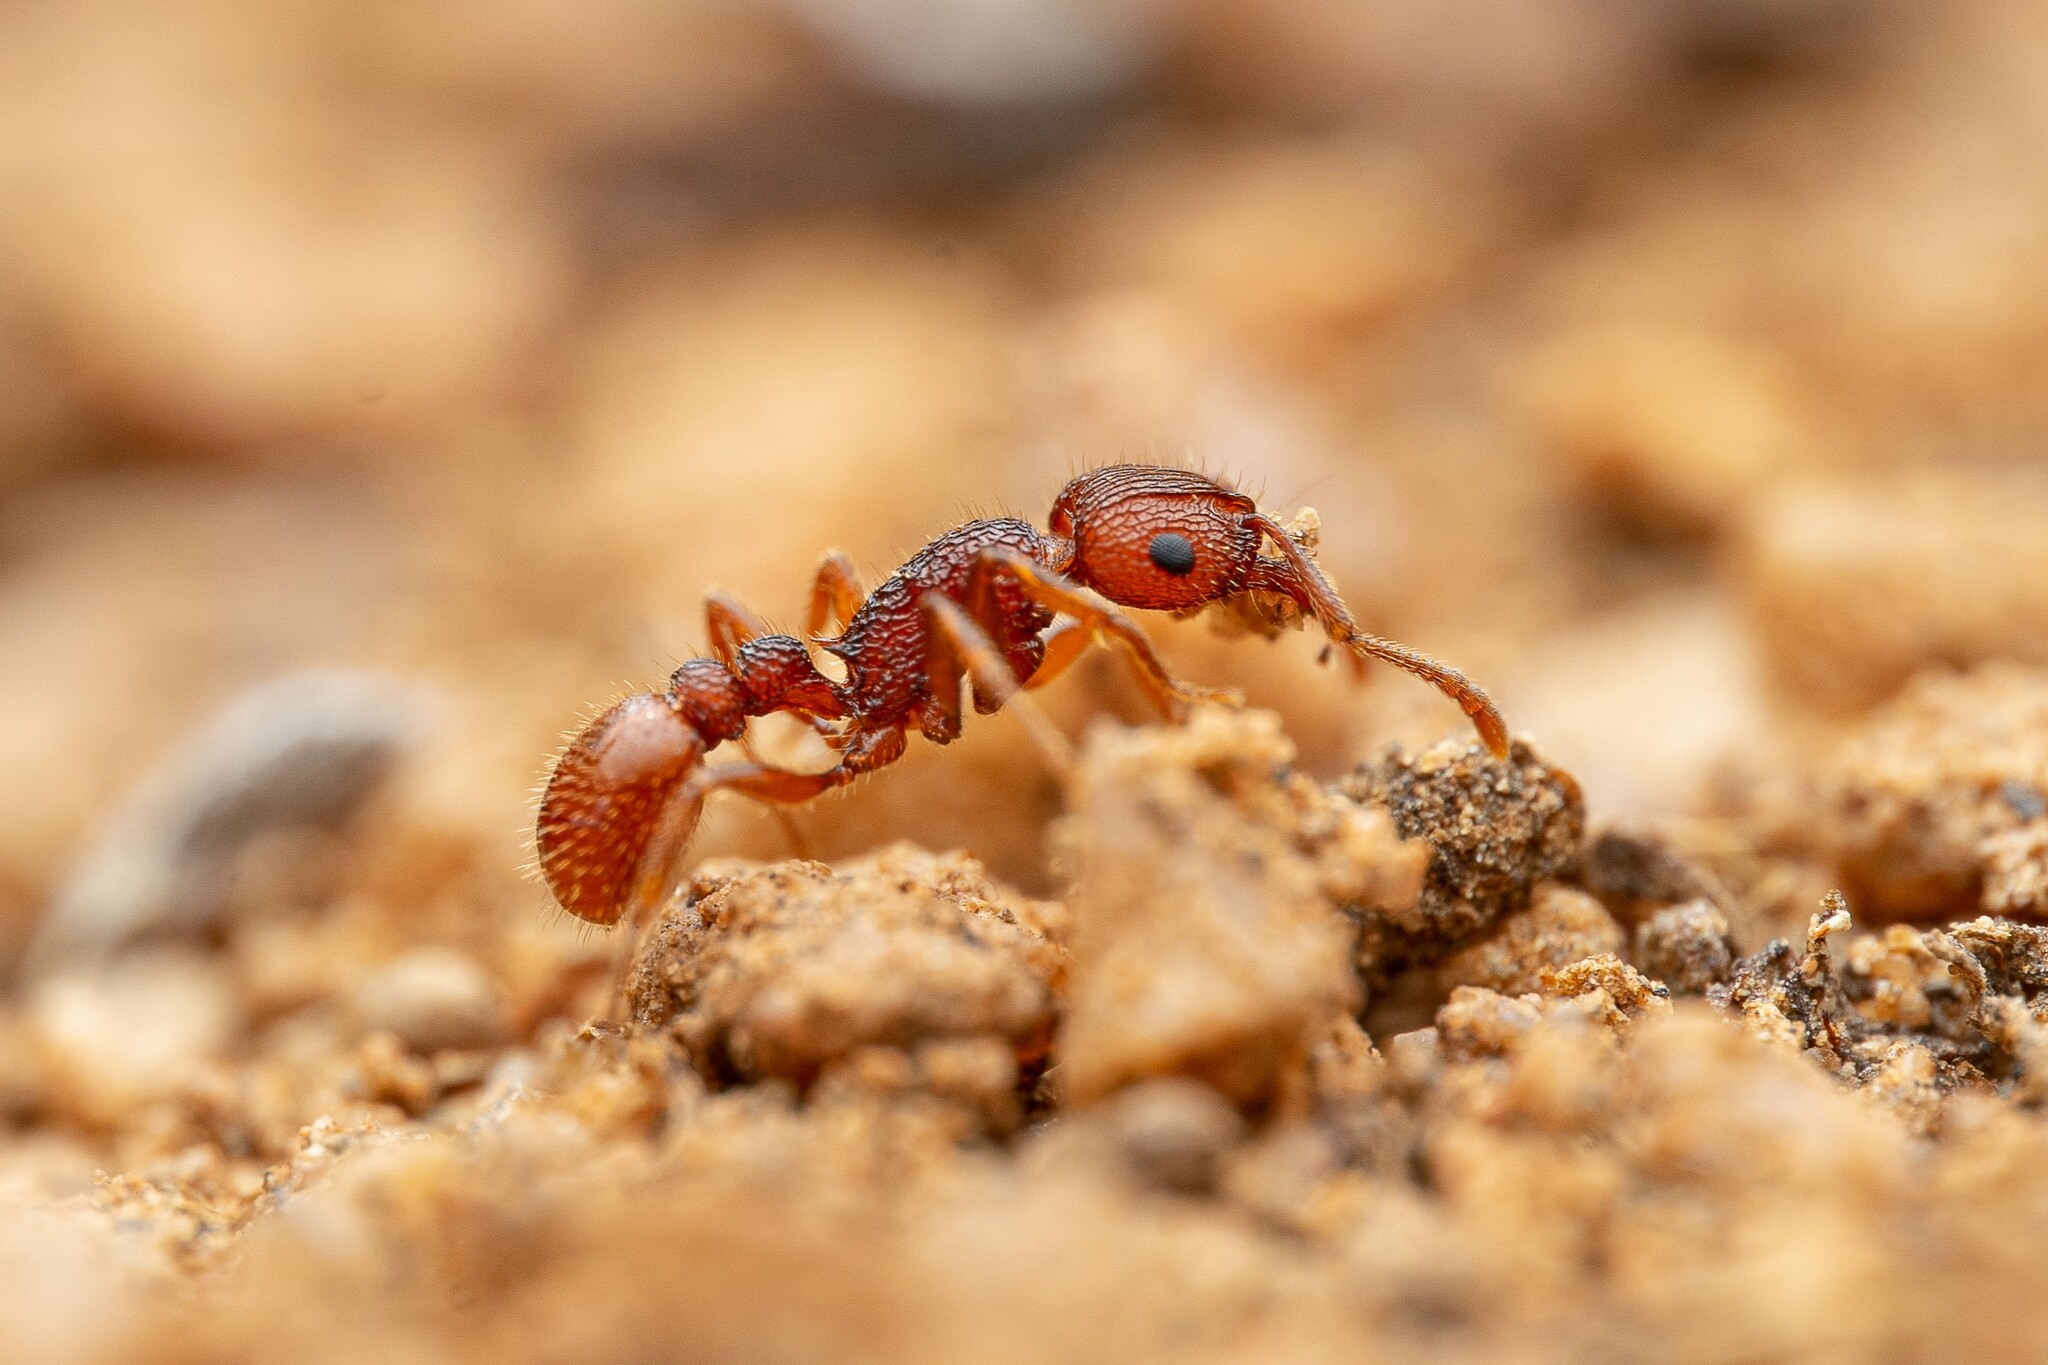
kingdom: Animalia
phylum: Arthropoda
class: Insecta
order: Hymenoptera
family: Formicidae
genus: Tetramorium
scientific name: Tetramorium hispidum
